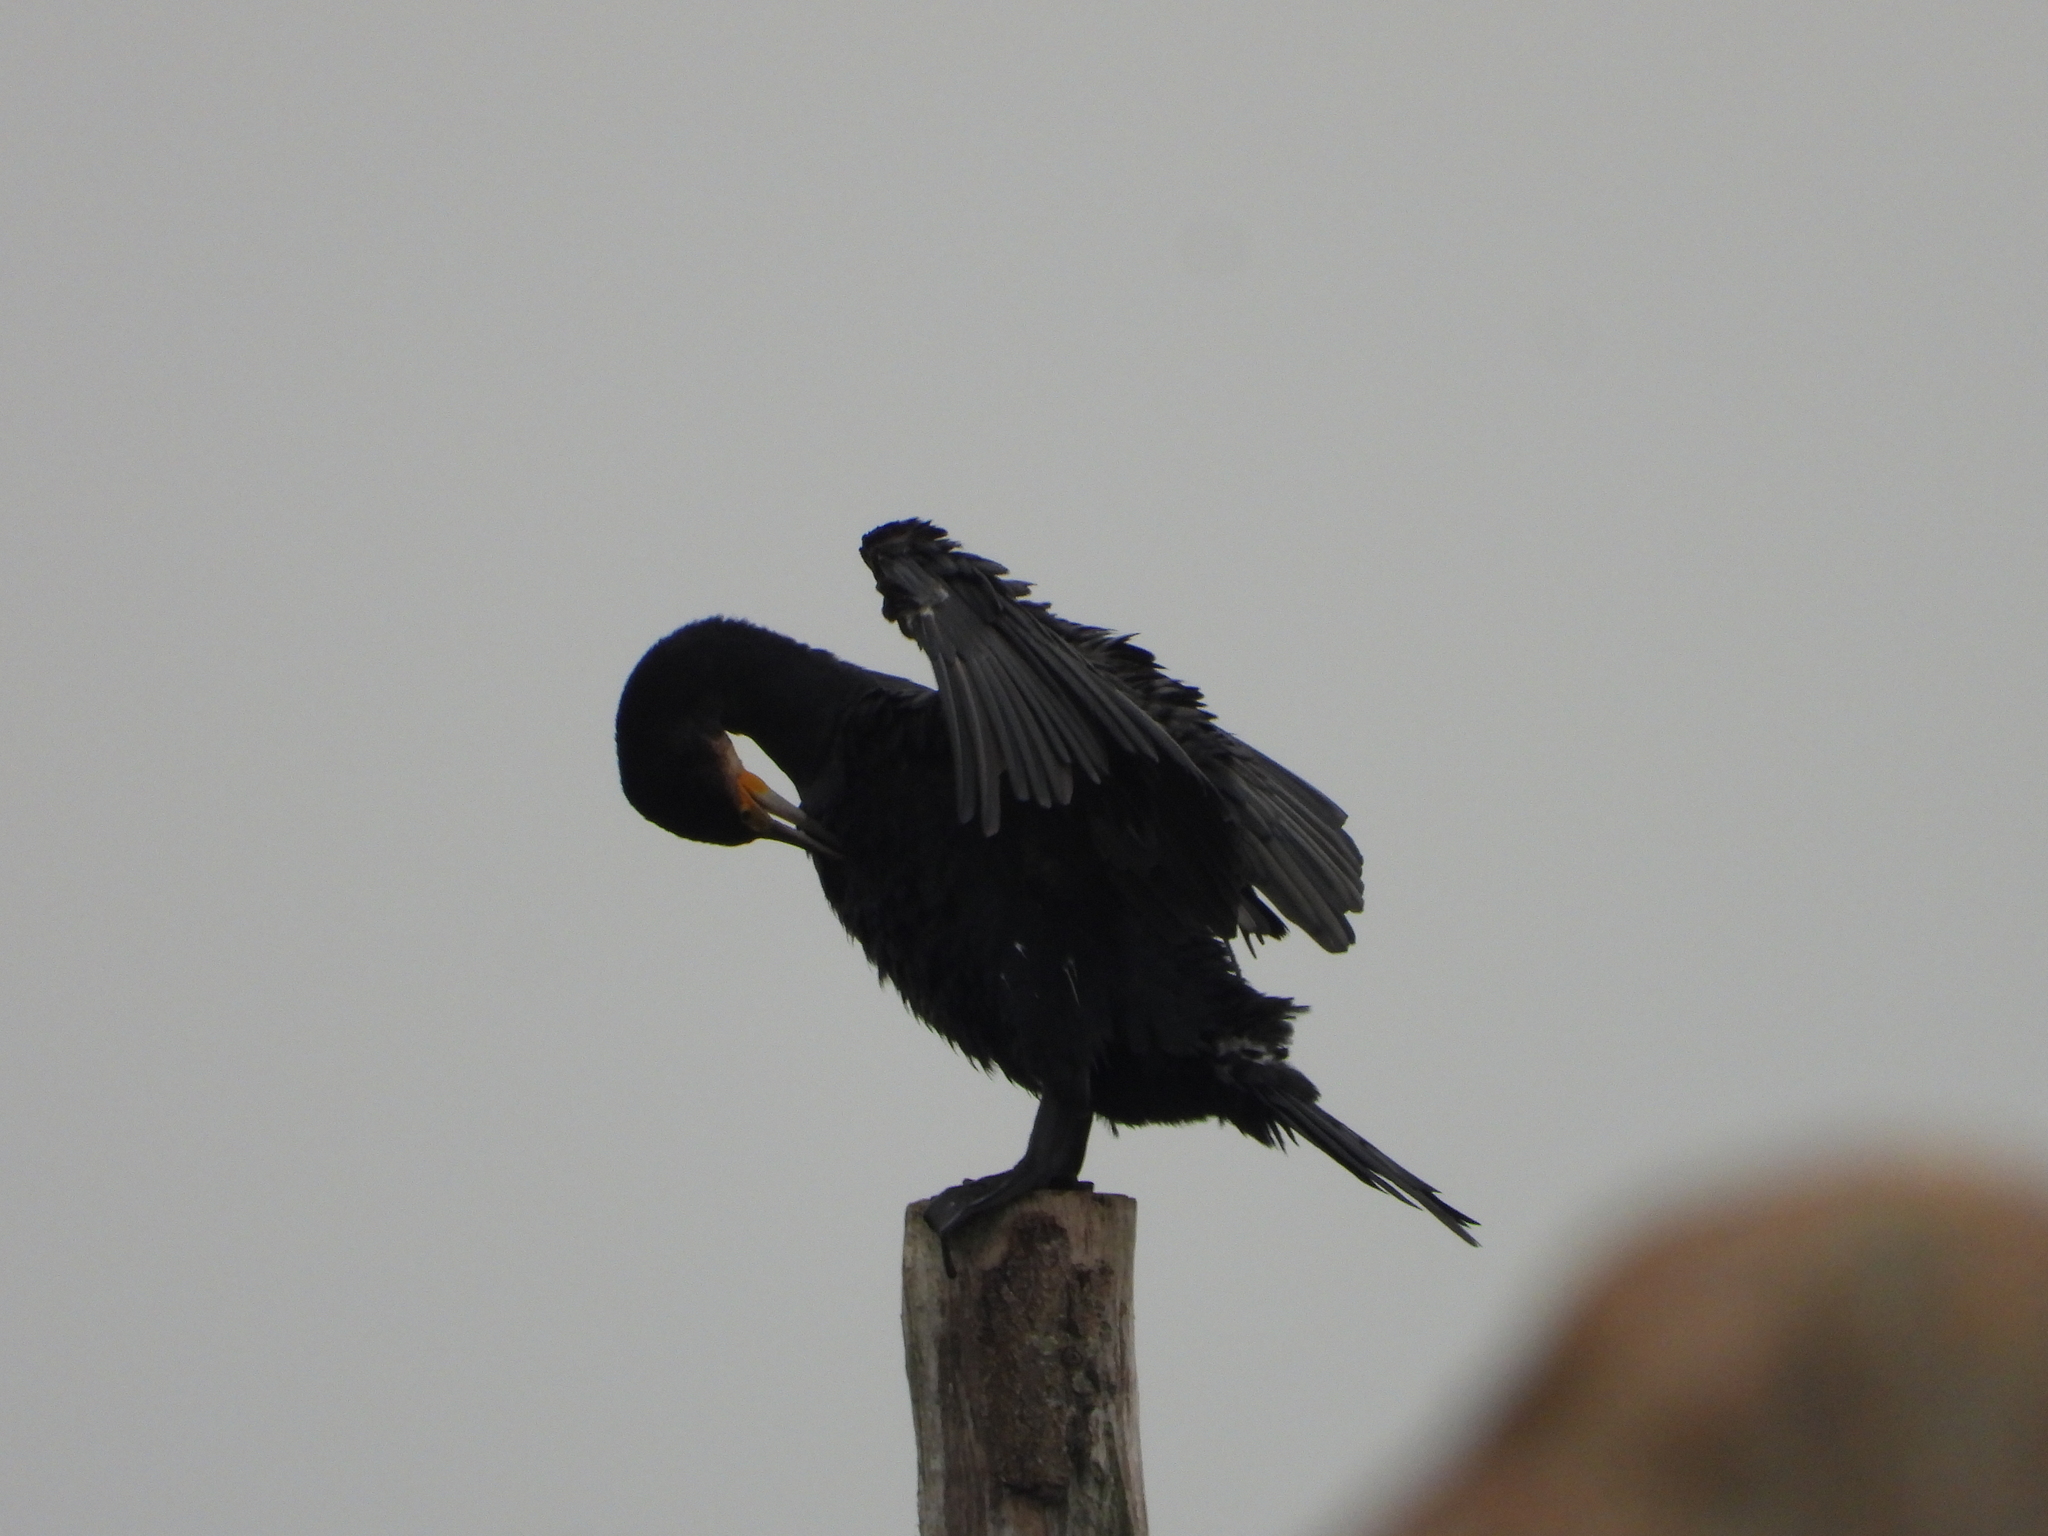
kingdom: Animalia
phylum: Chordata
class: Aves
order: Suliformes
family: Phalacrocoracidae
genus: Phalacrocorax
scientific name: Phalacrocorax carbo
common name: Great cormorant
